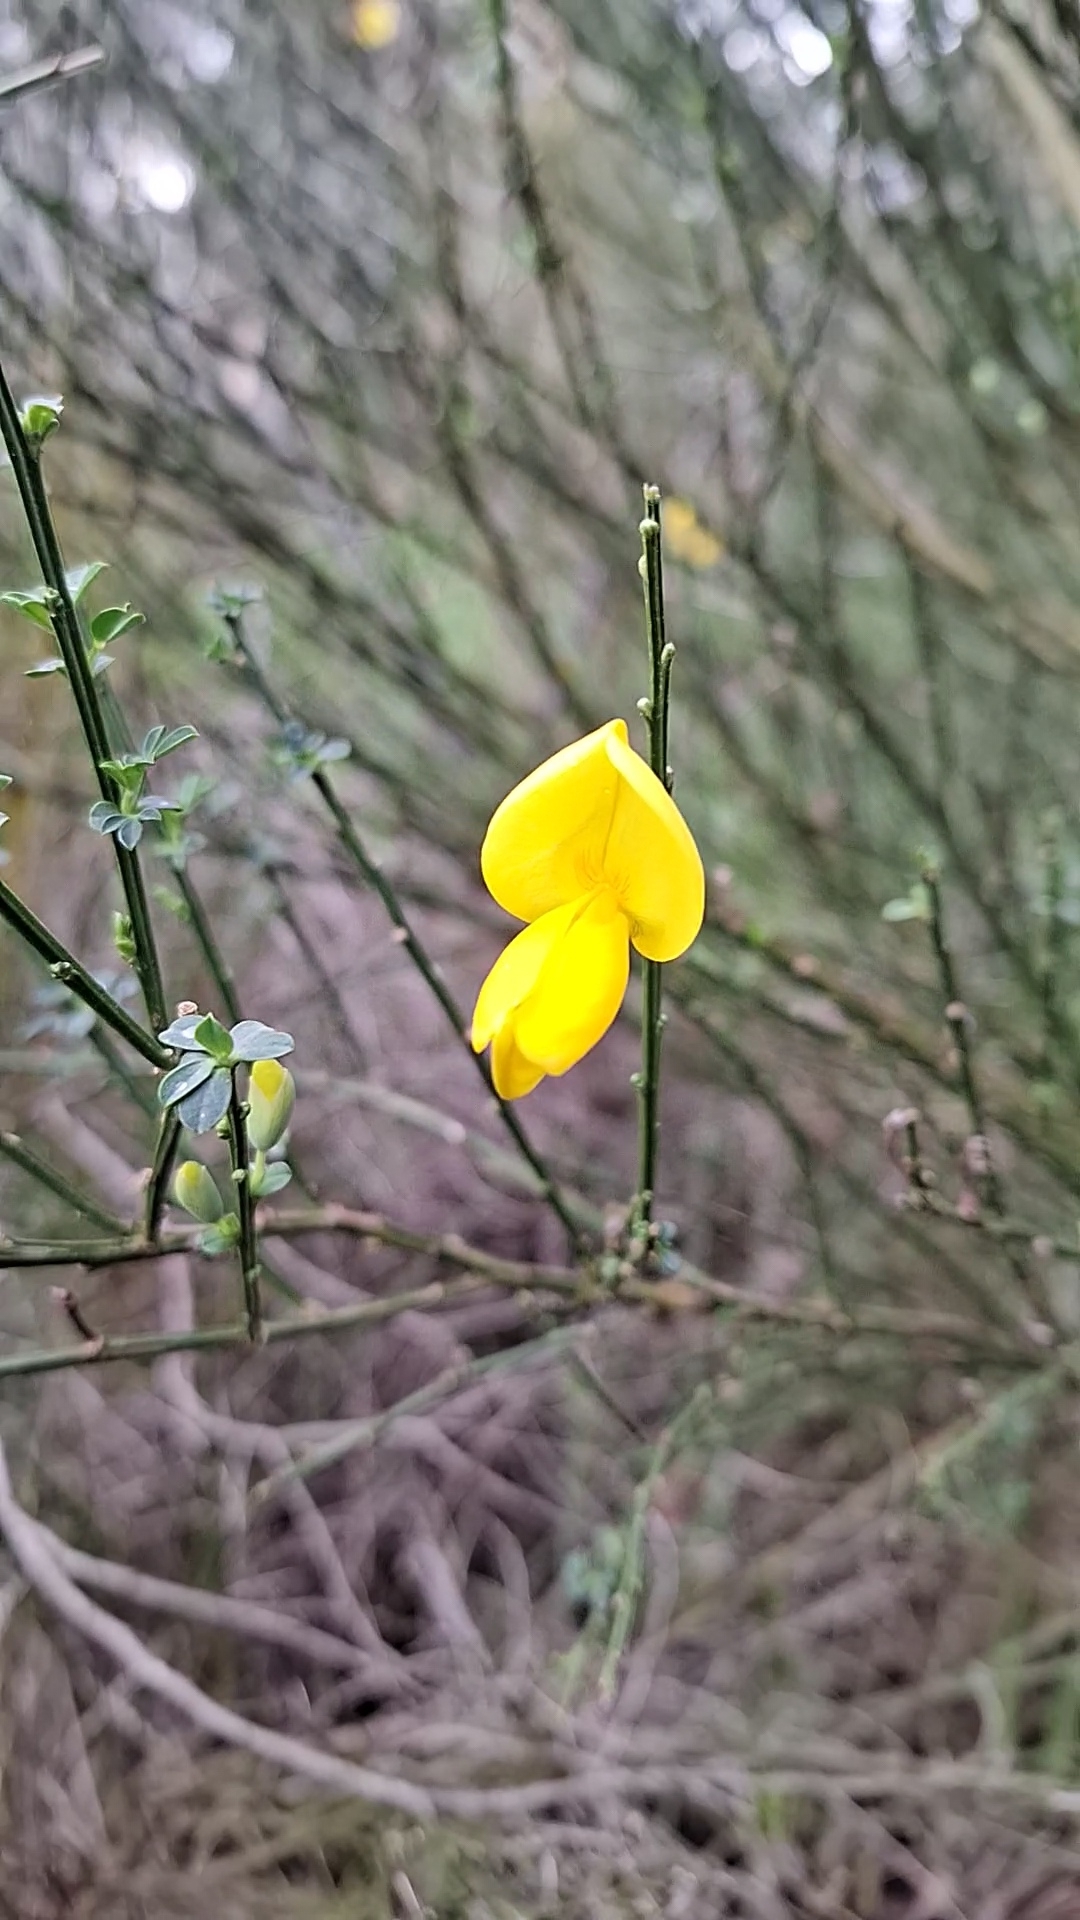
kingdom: Plantae
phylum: Tracheophyta
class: Magnoliopsida
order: Fabales
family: Fabaceae
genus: Cytisus
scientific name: Cytisus scoparius
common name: Scotch broom
